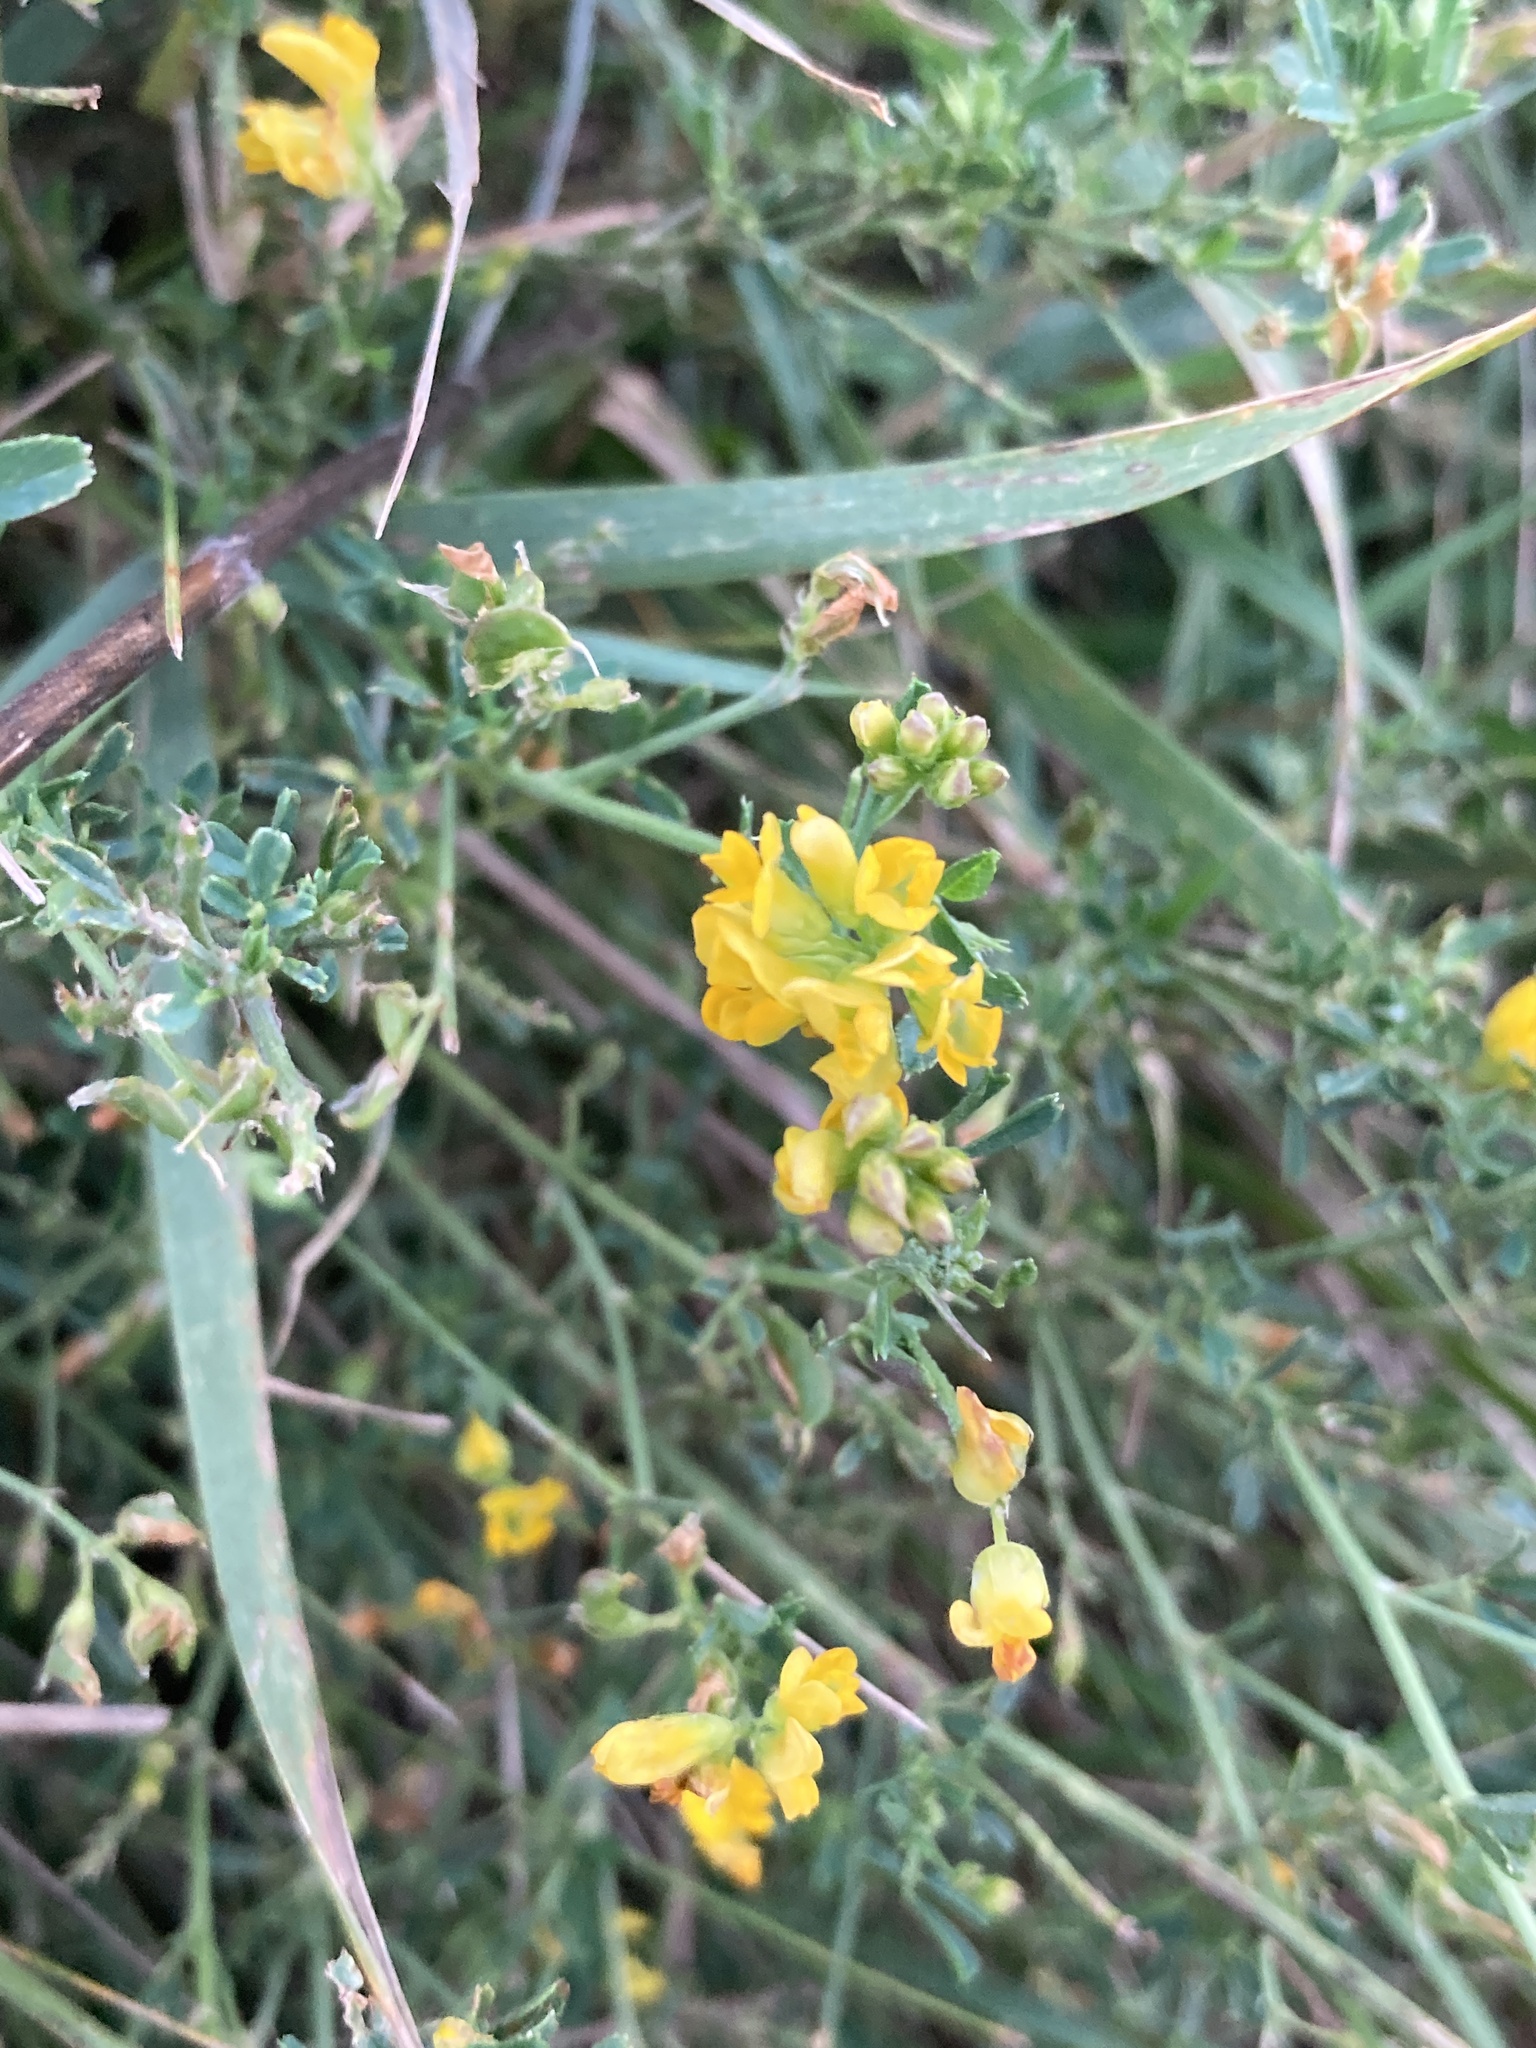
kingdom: Plantae
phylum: Tracheophyta
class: Magnoliopsida
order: Fabales
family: Fabaceae
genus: Medicago
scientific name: Medicago falcata
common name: Sickle medick
